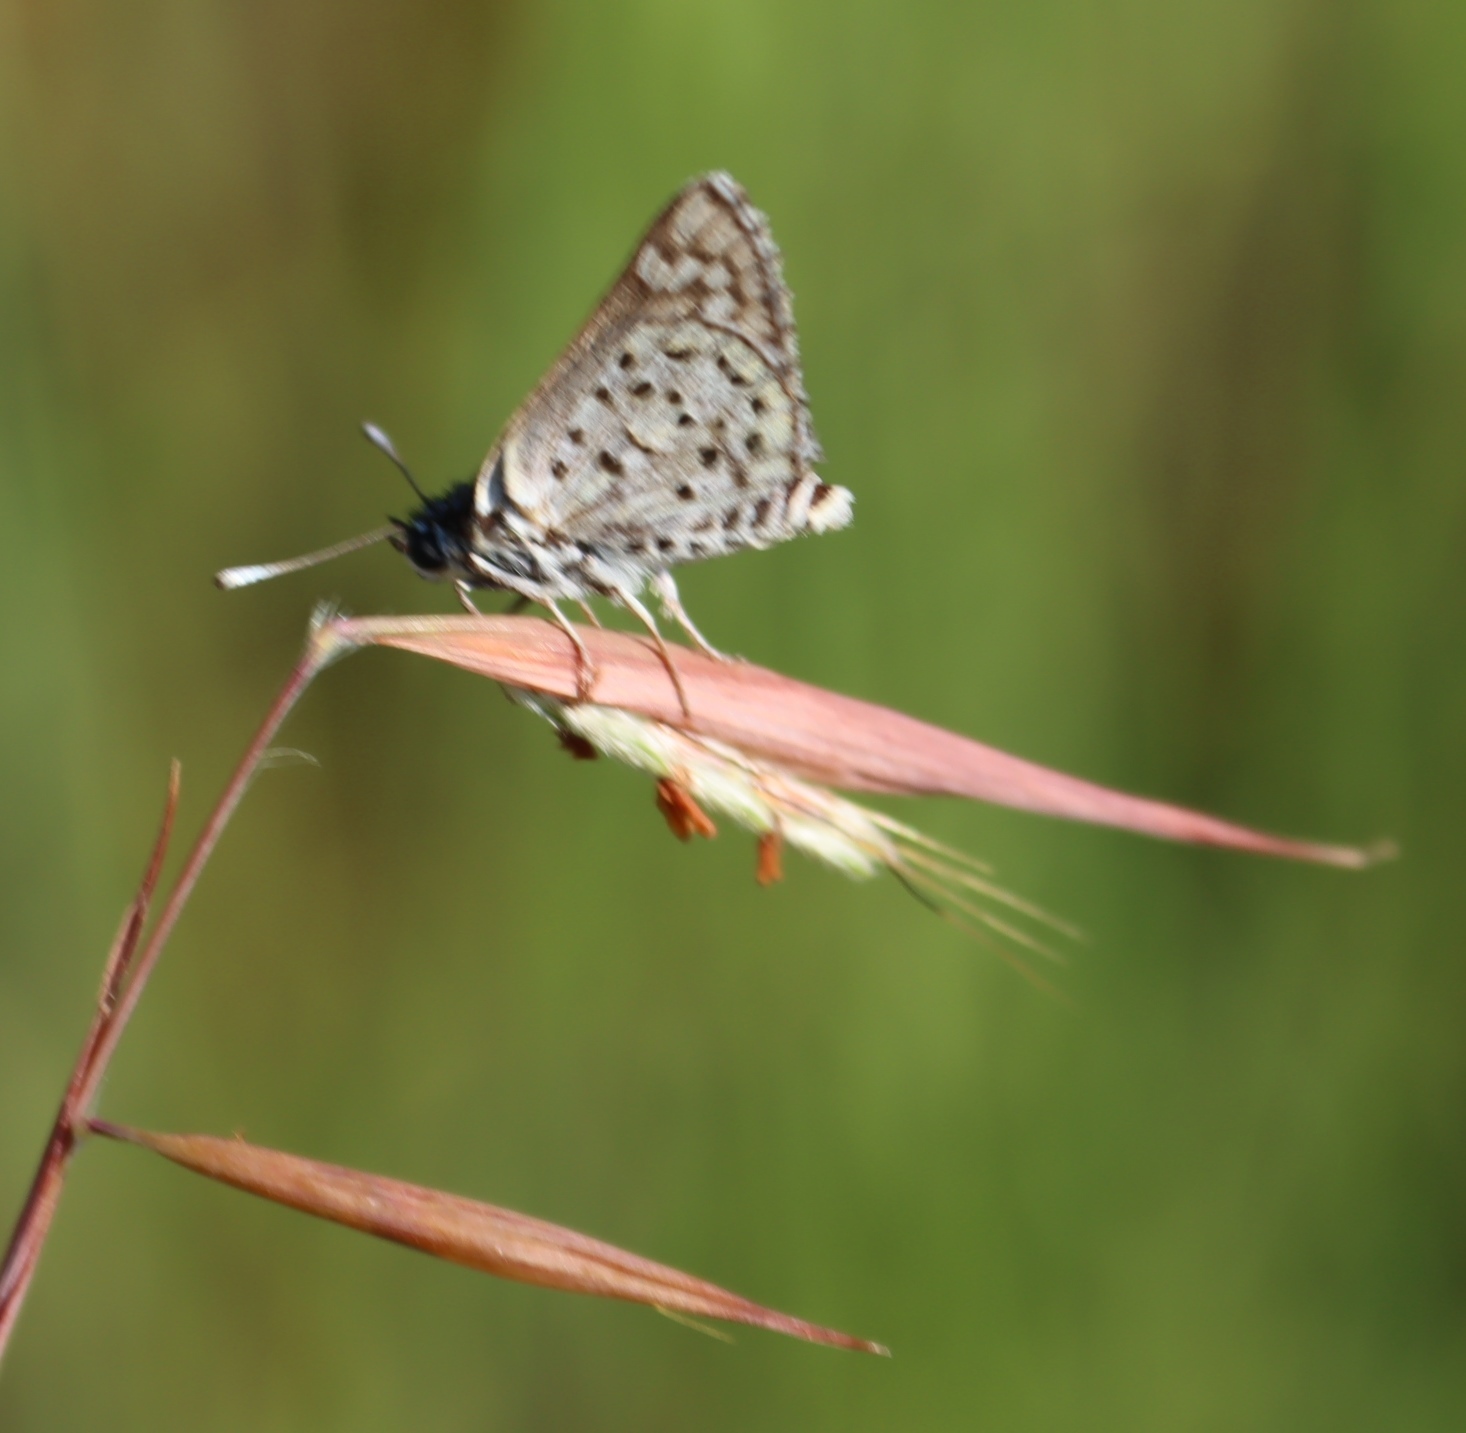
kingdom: Animalia
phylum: Arthropoda
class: Insecta
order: Lepidoptera
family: Hesperiidae
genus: Nervia
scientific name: Nervia
